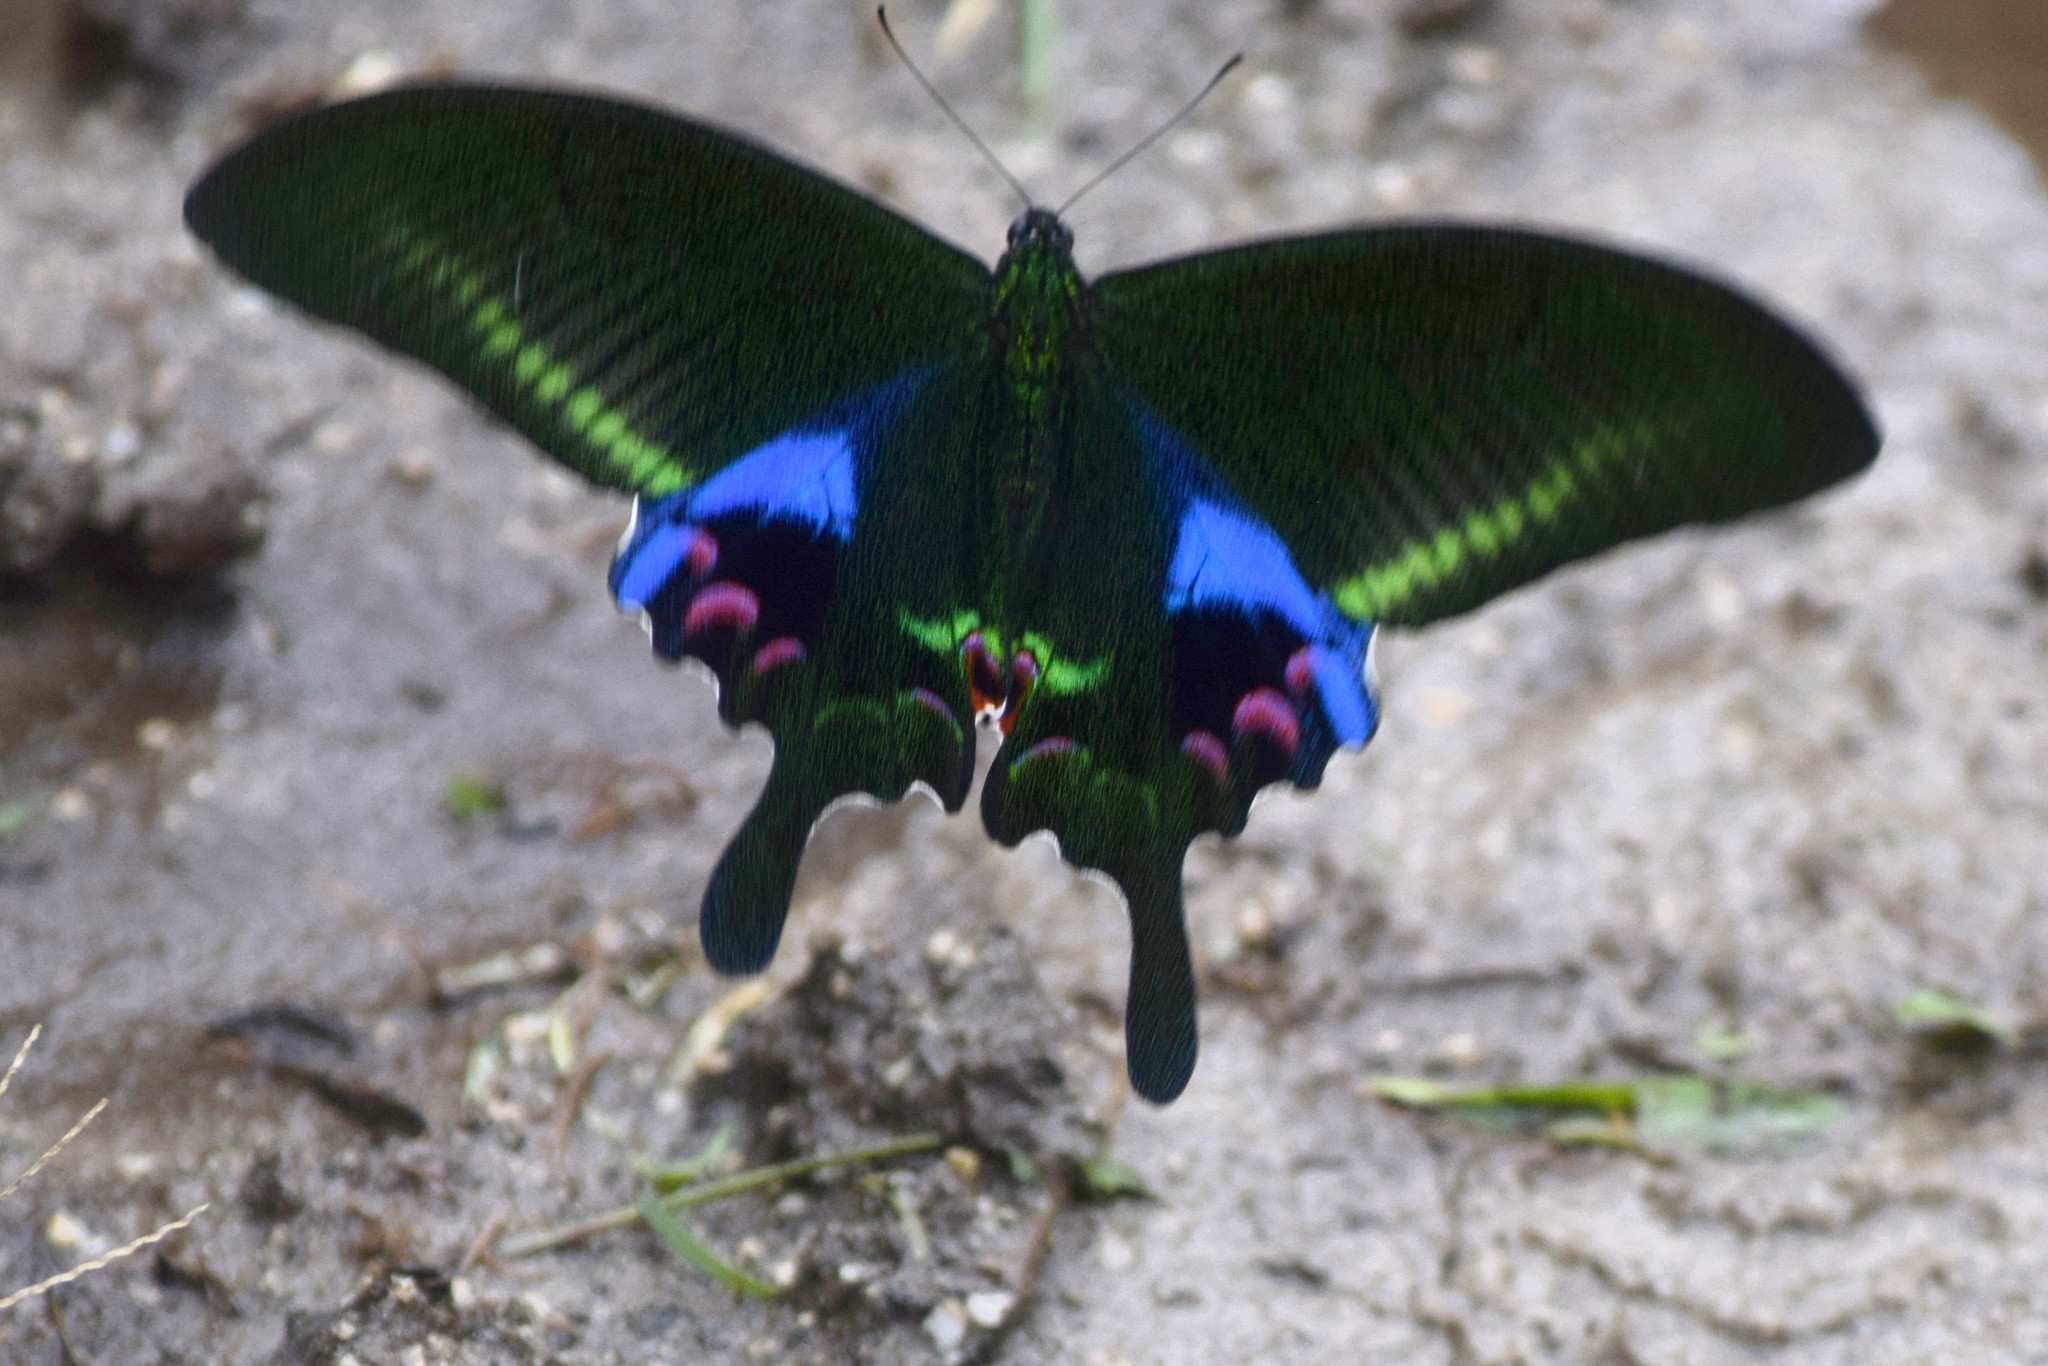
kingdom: Animalia
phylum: Arthropoda
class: Insecta
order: Lepidoptera
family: Papilionidae
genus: Papilio
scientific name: Papilio arcturus
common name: Blue peacock
